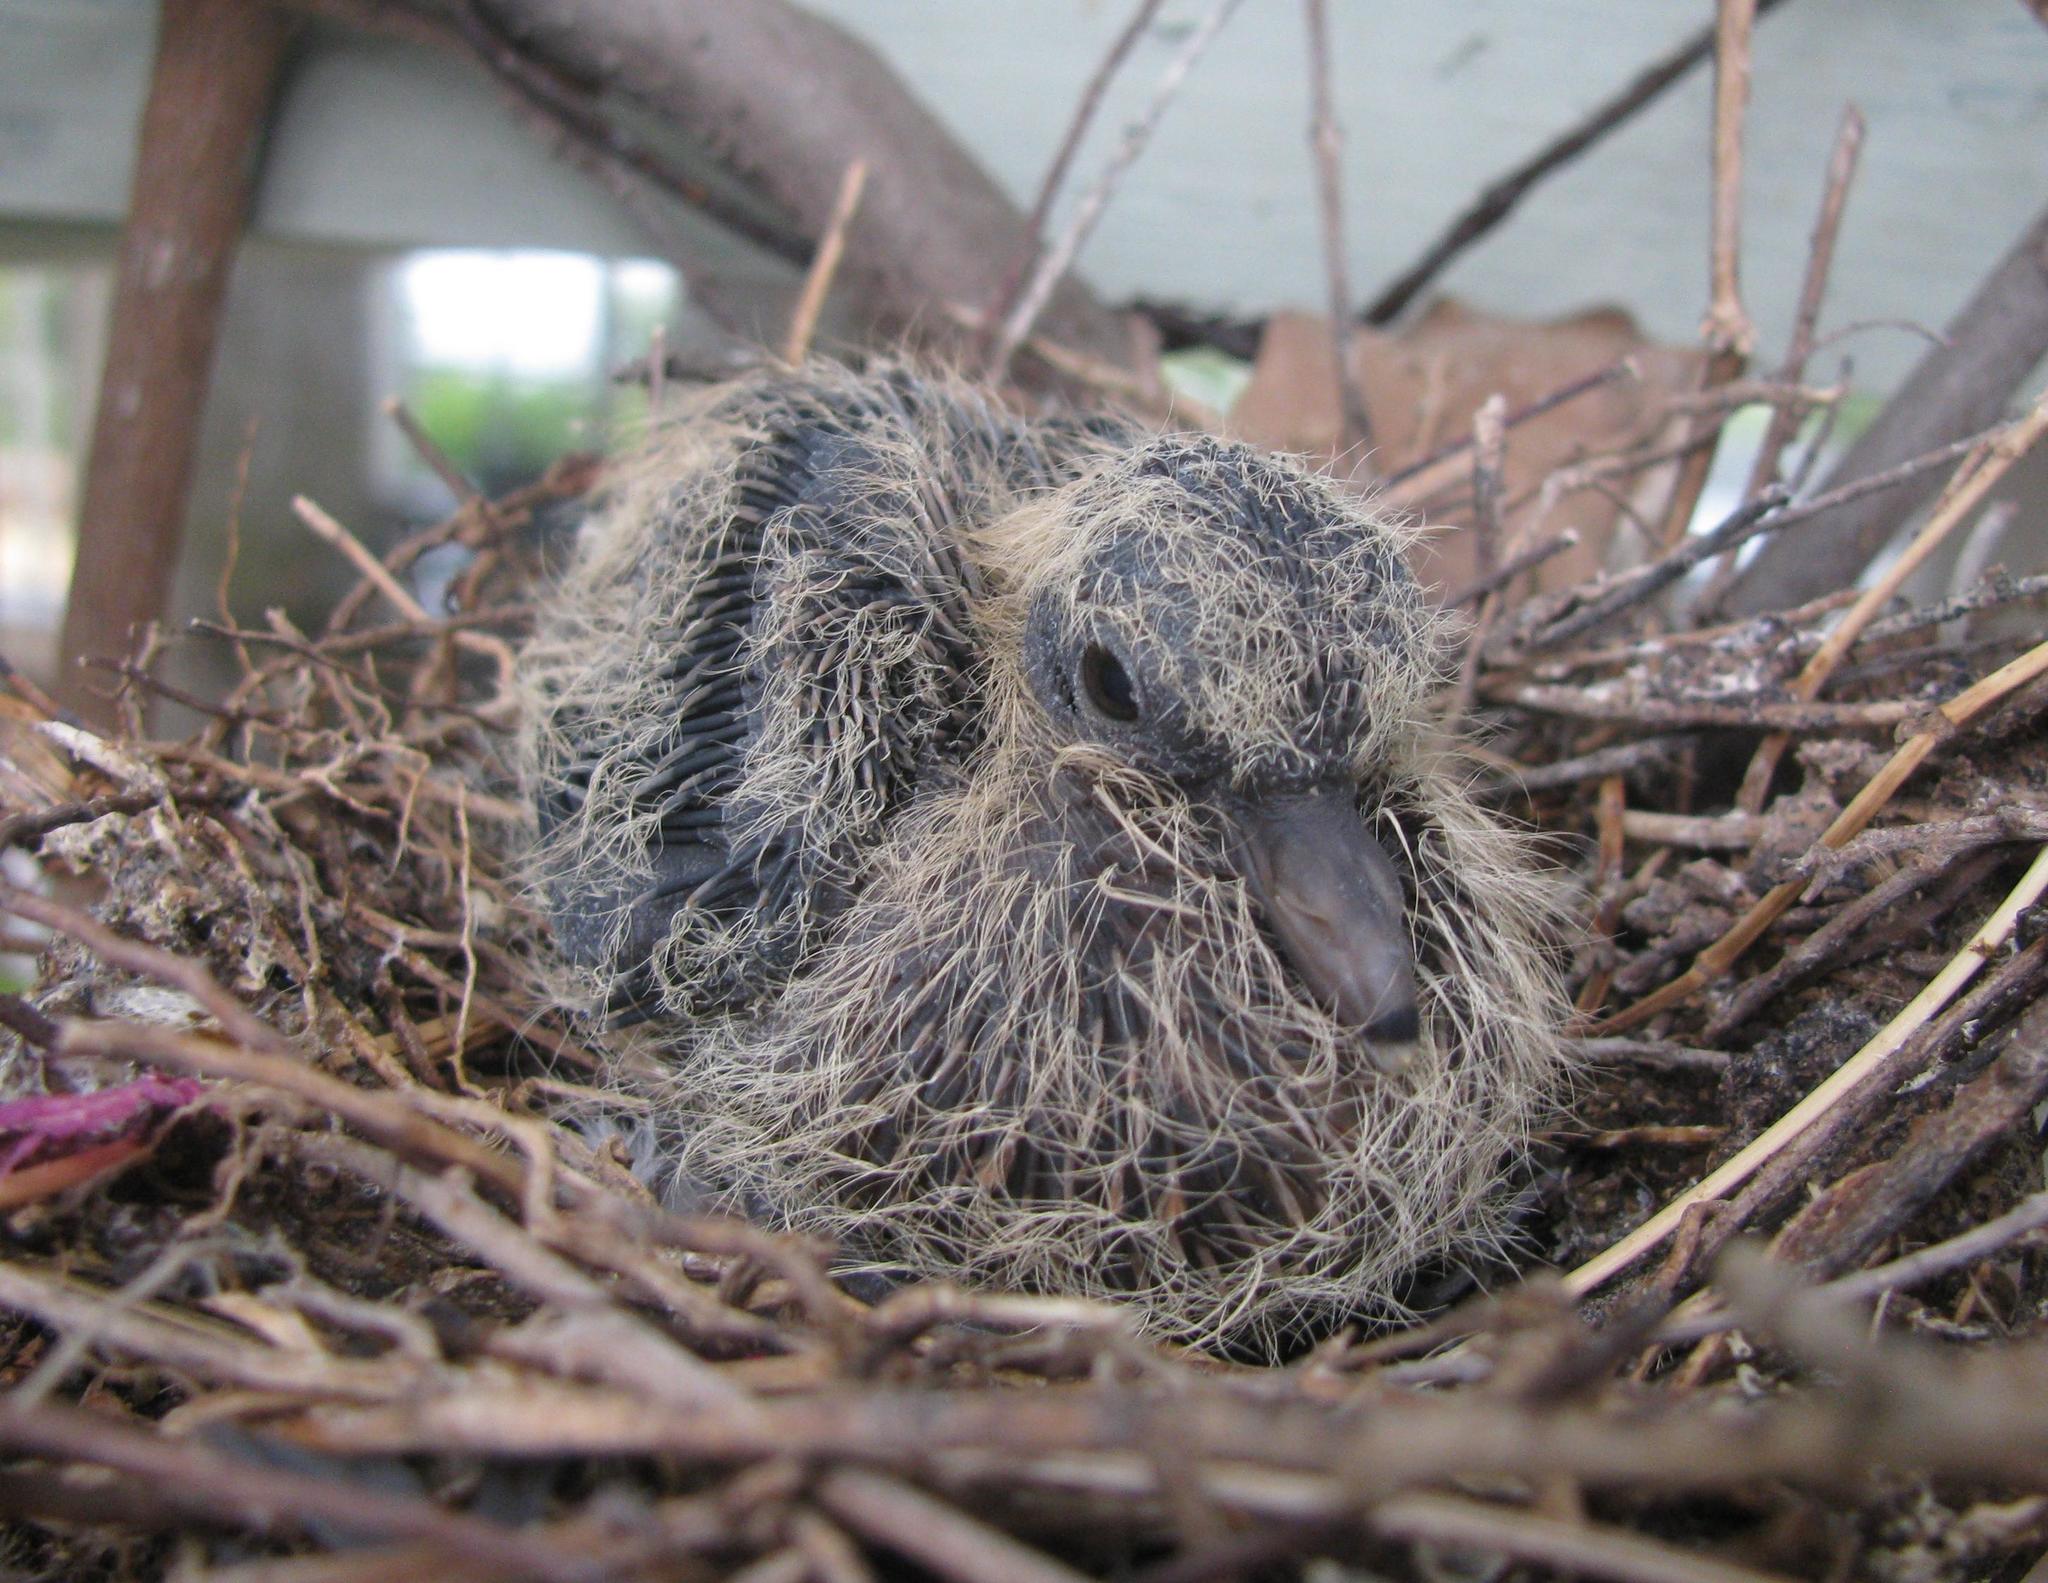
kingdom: Animalia
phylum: Chordata
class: Aves
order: Columbiformes
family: Columbidae
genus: Spilopelia
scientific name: Spilopelia senegalensis
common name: Laughing dove
